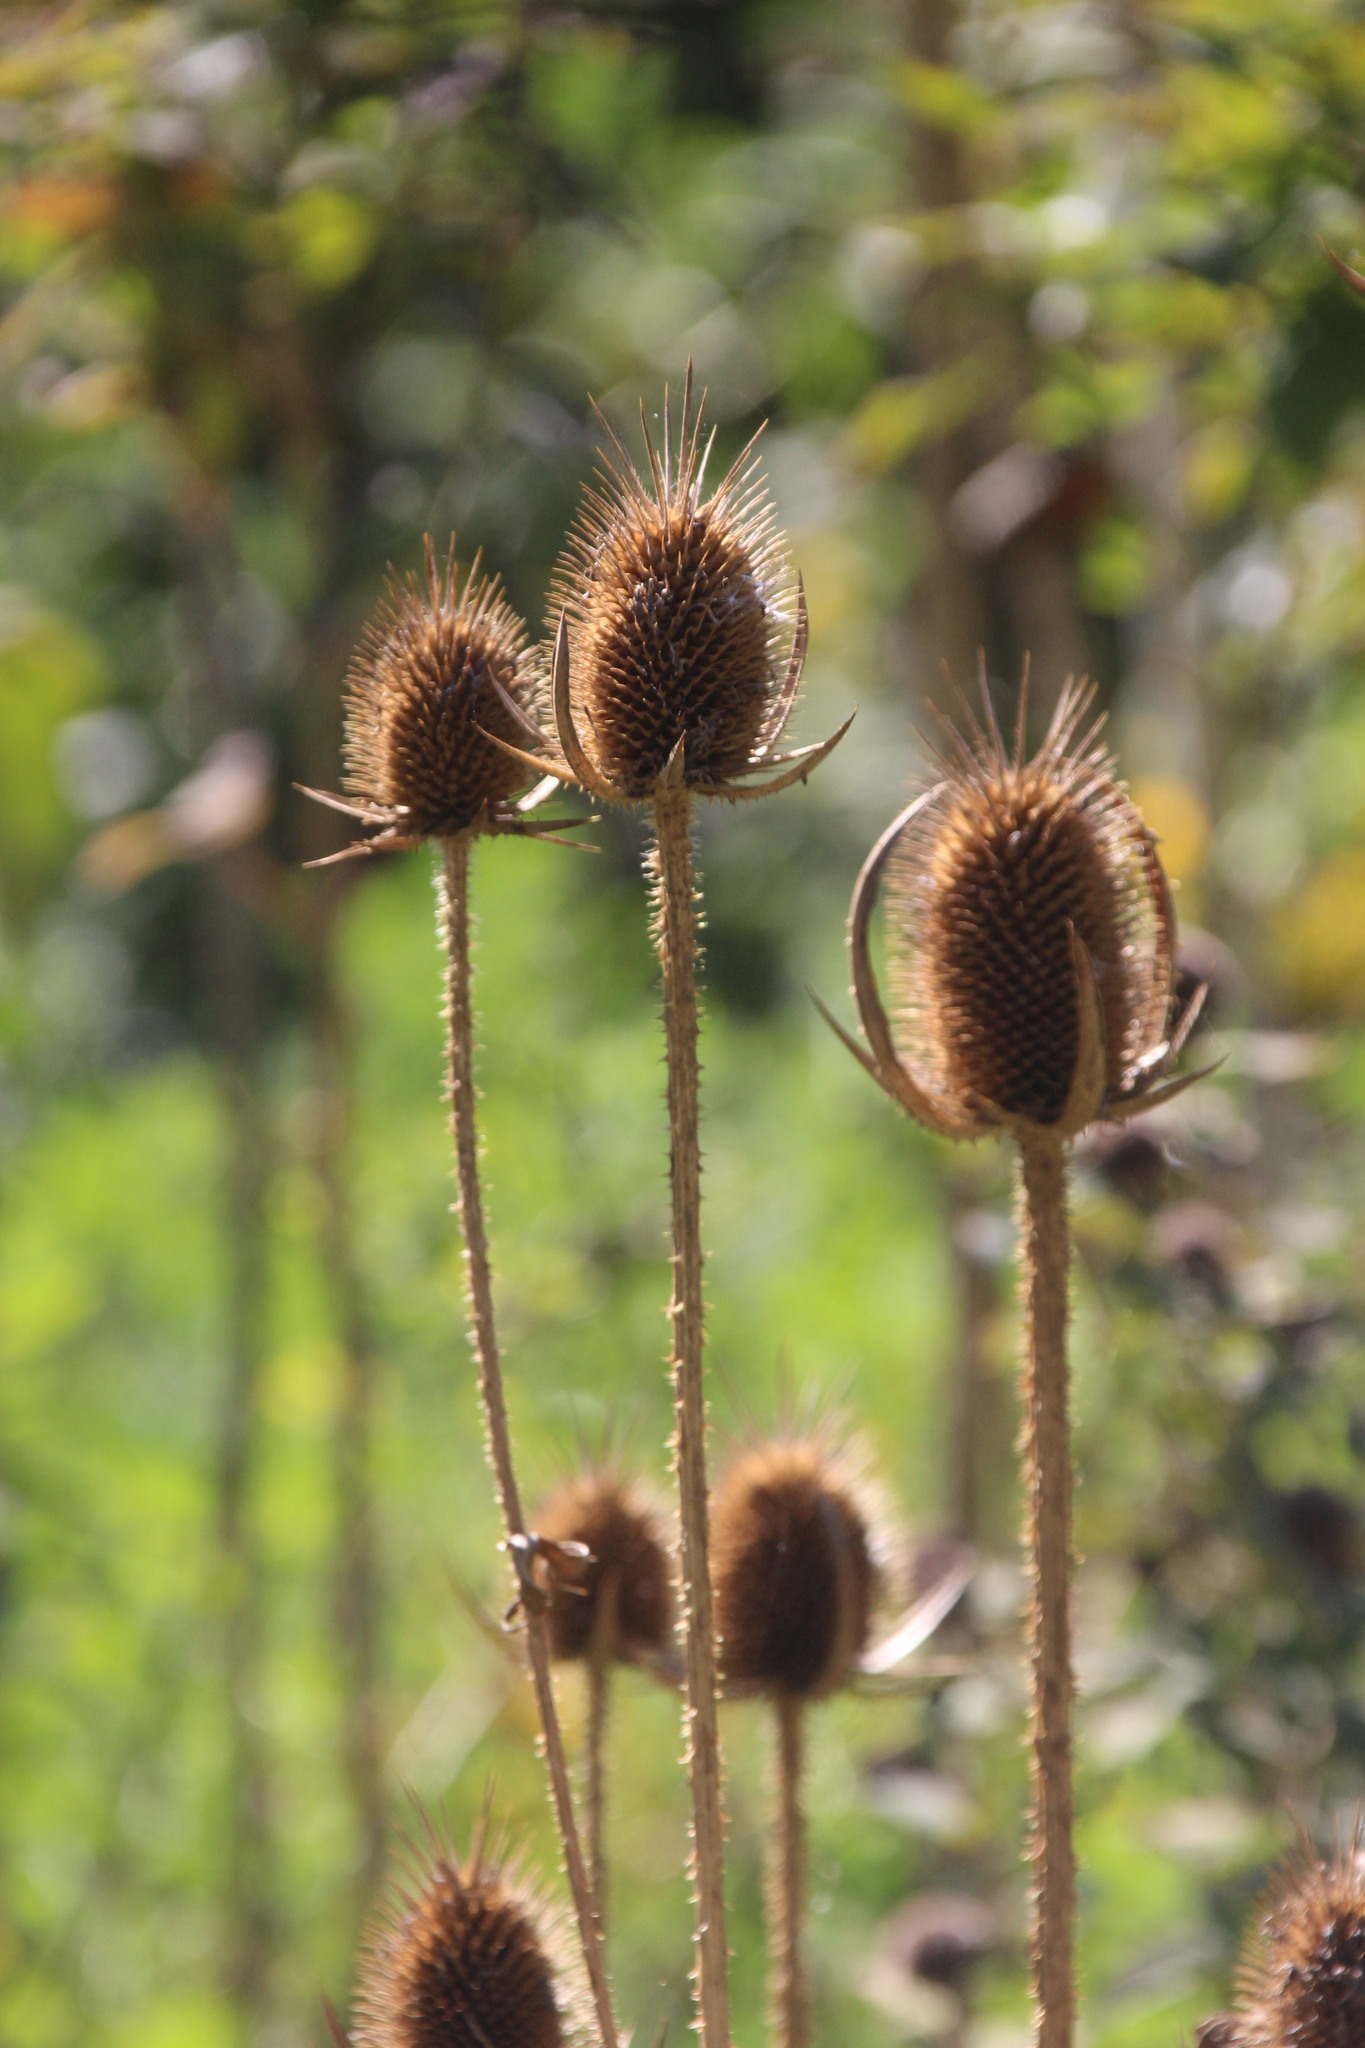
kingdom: Plantae
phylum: Tracheophyta
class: Magnoliopsida
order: Dipsacales
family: Caprifoliaceae
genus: Dipsacus
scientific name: Dipsacus laciniatus
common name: Cut-leaved teasel
